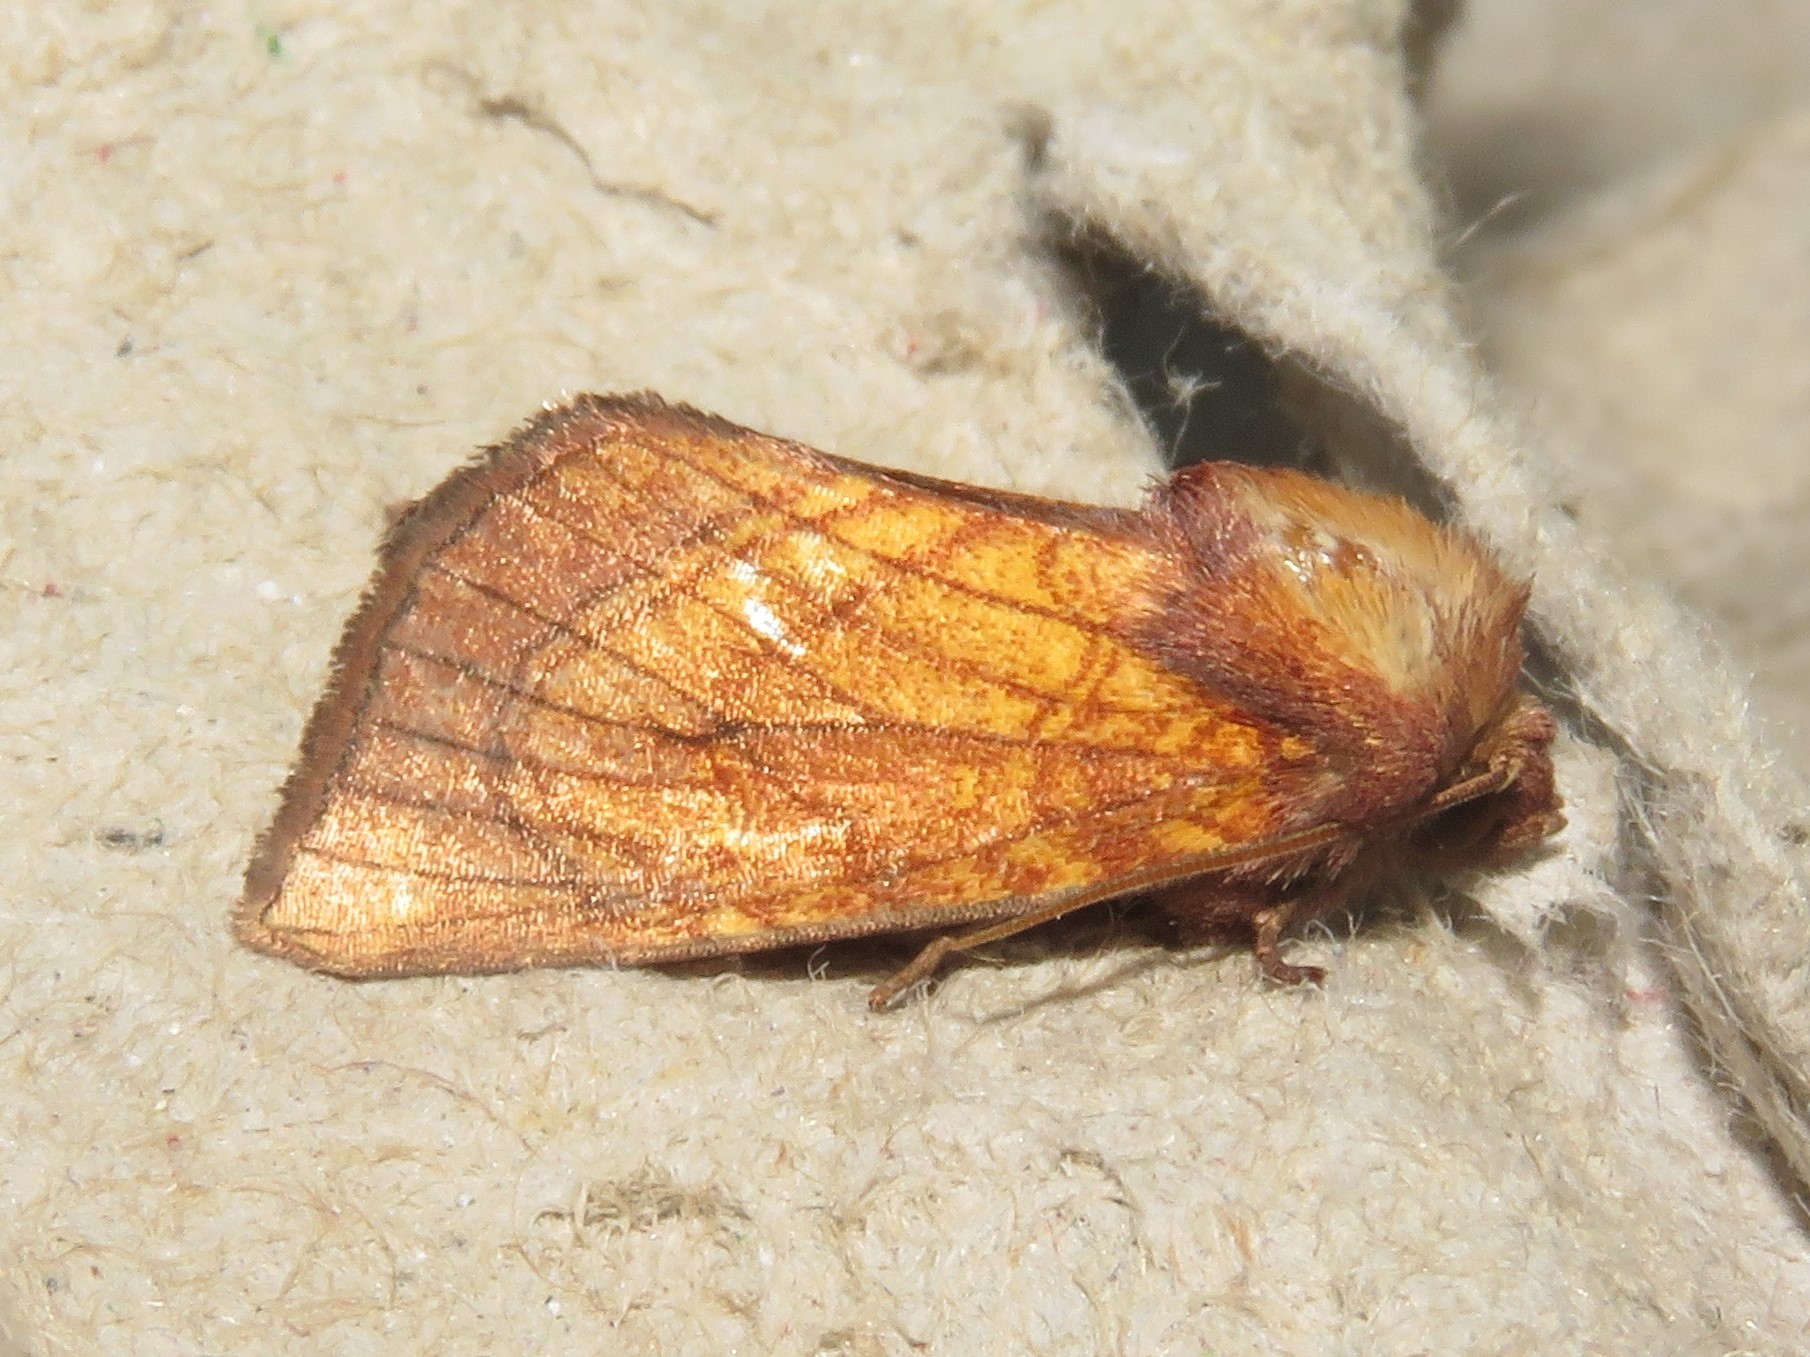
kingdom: Animalia
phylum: Arthropoda
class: Insecta
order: Lepidoptera
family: Noctuidae
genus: Papaipema
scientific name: Papaipema inquaesita
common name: Sensitive fern borer moth
